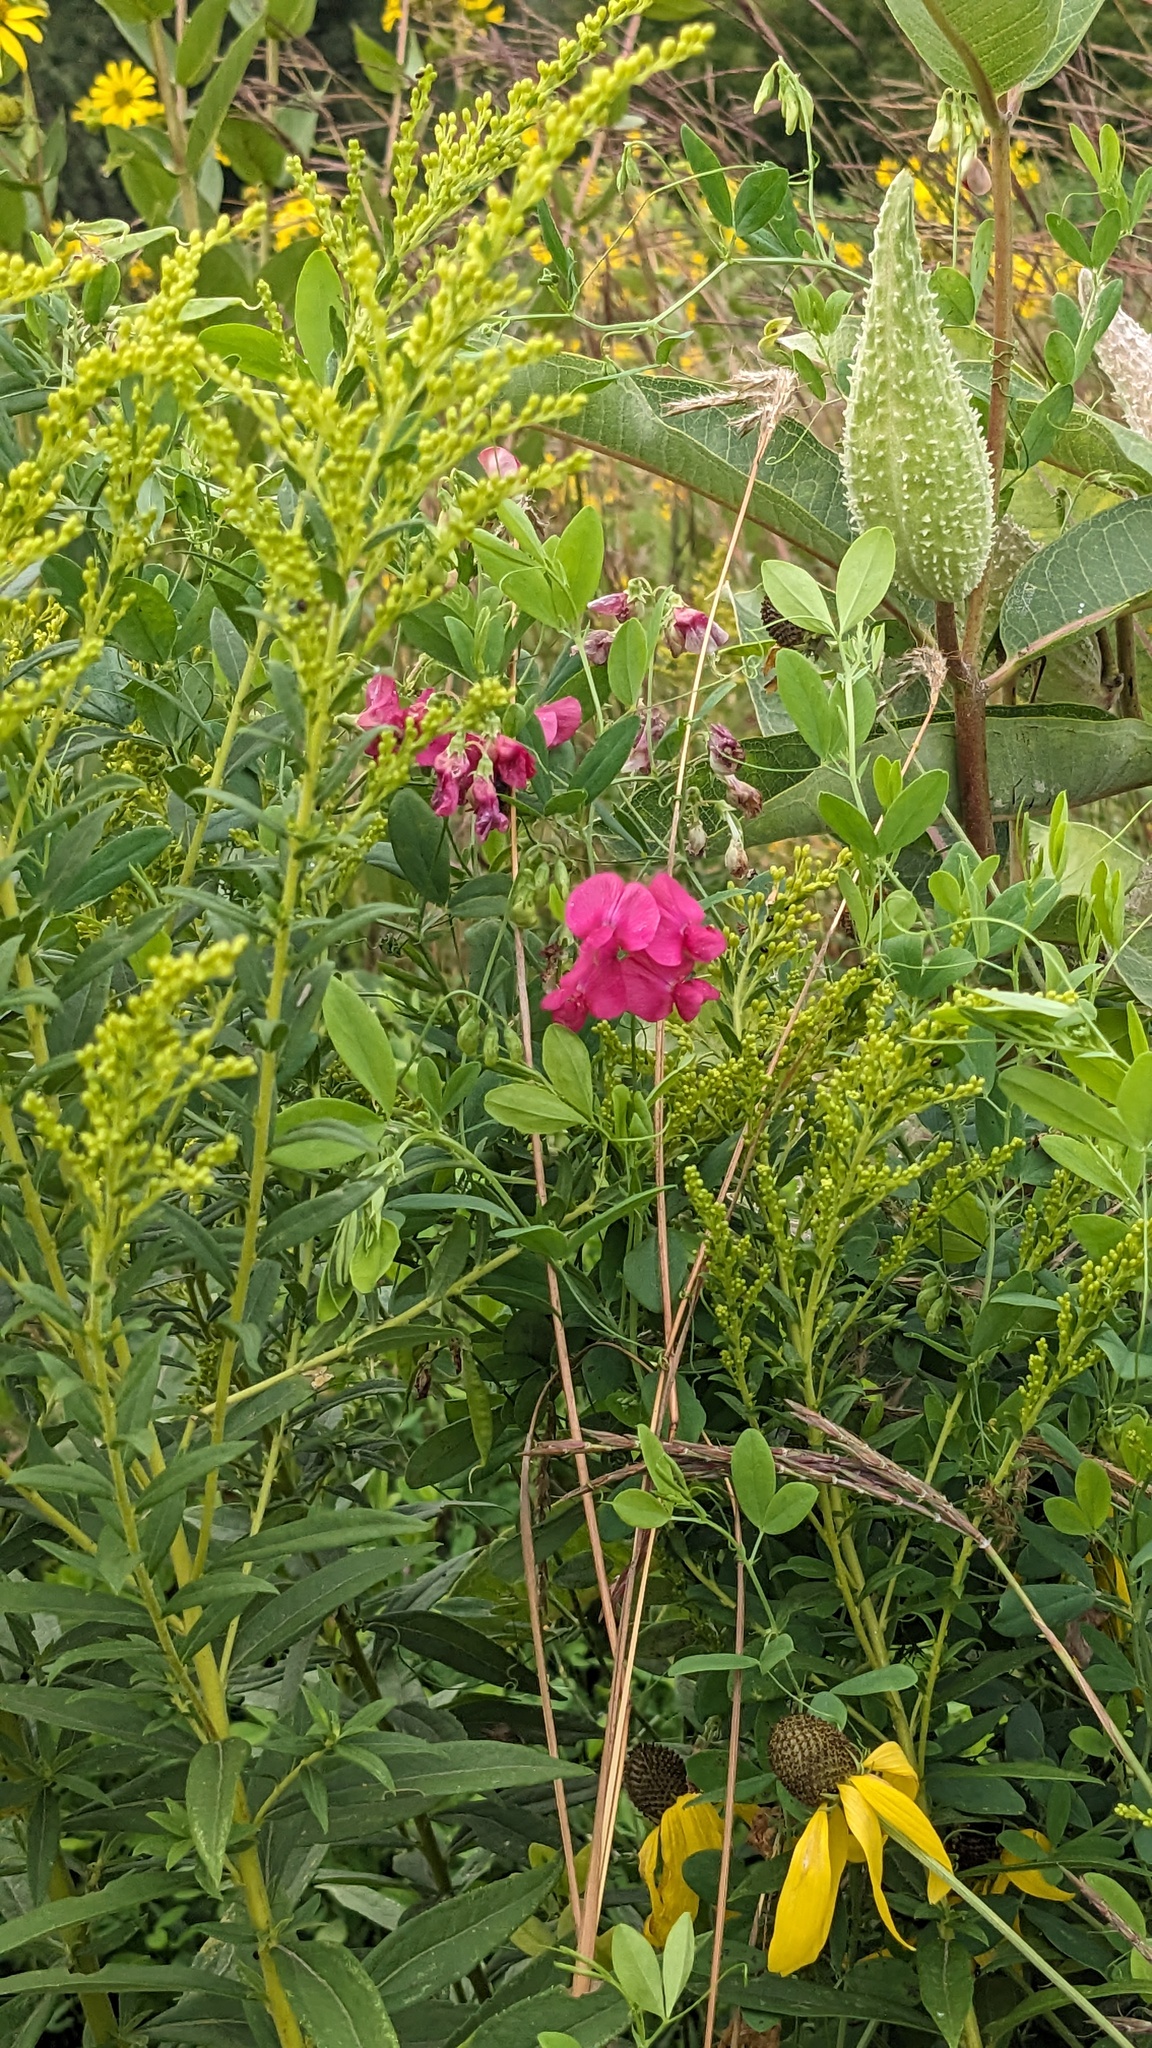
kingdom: Plantae
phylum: Tracheophyta
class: Magnoliopsida
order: Fabales
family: Fabaceae
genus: Lathyrus
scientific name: Lathyrus tuberosus
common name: Tuberous pea
